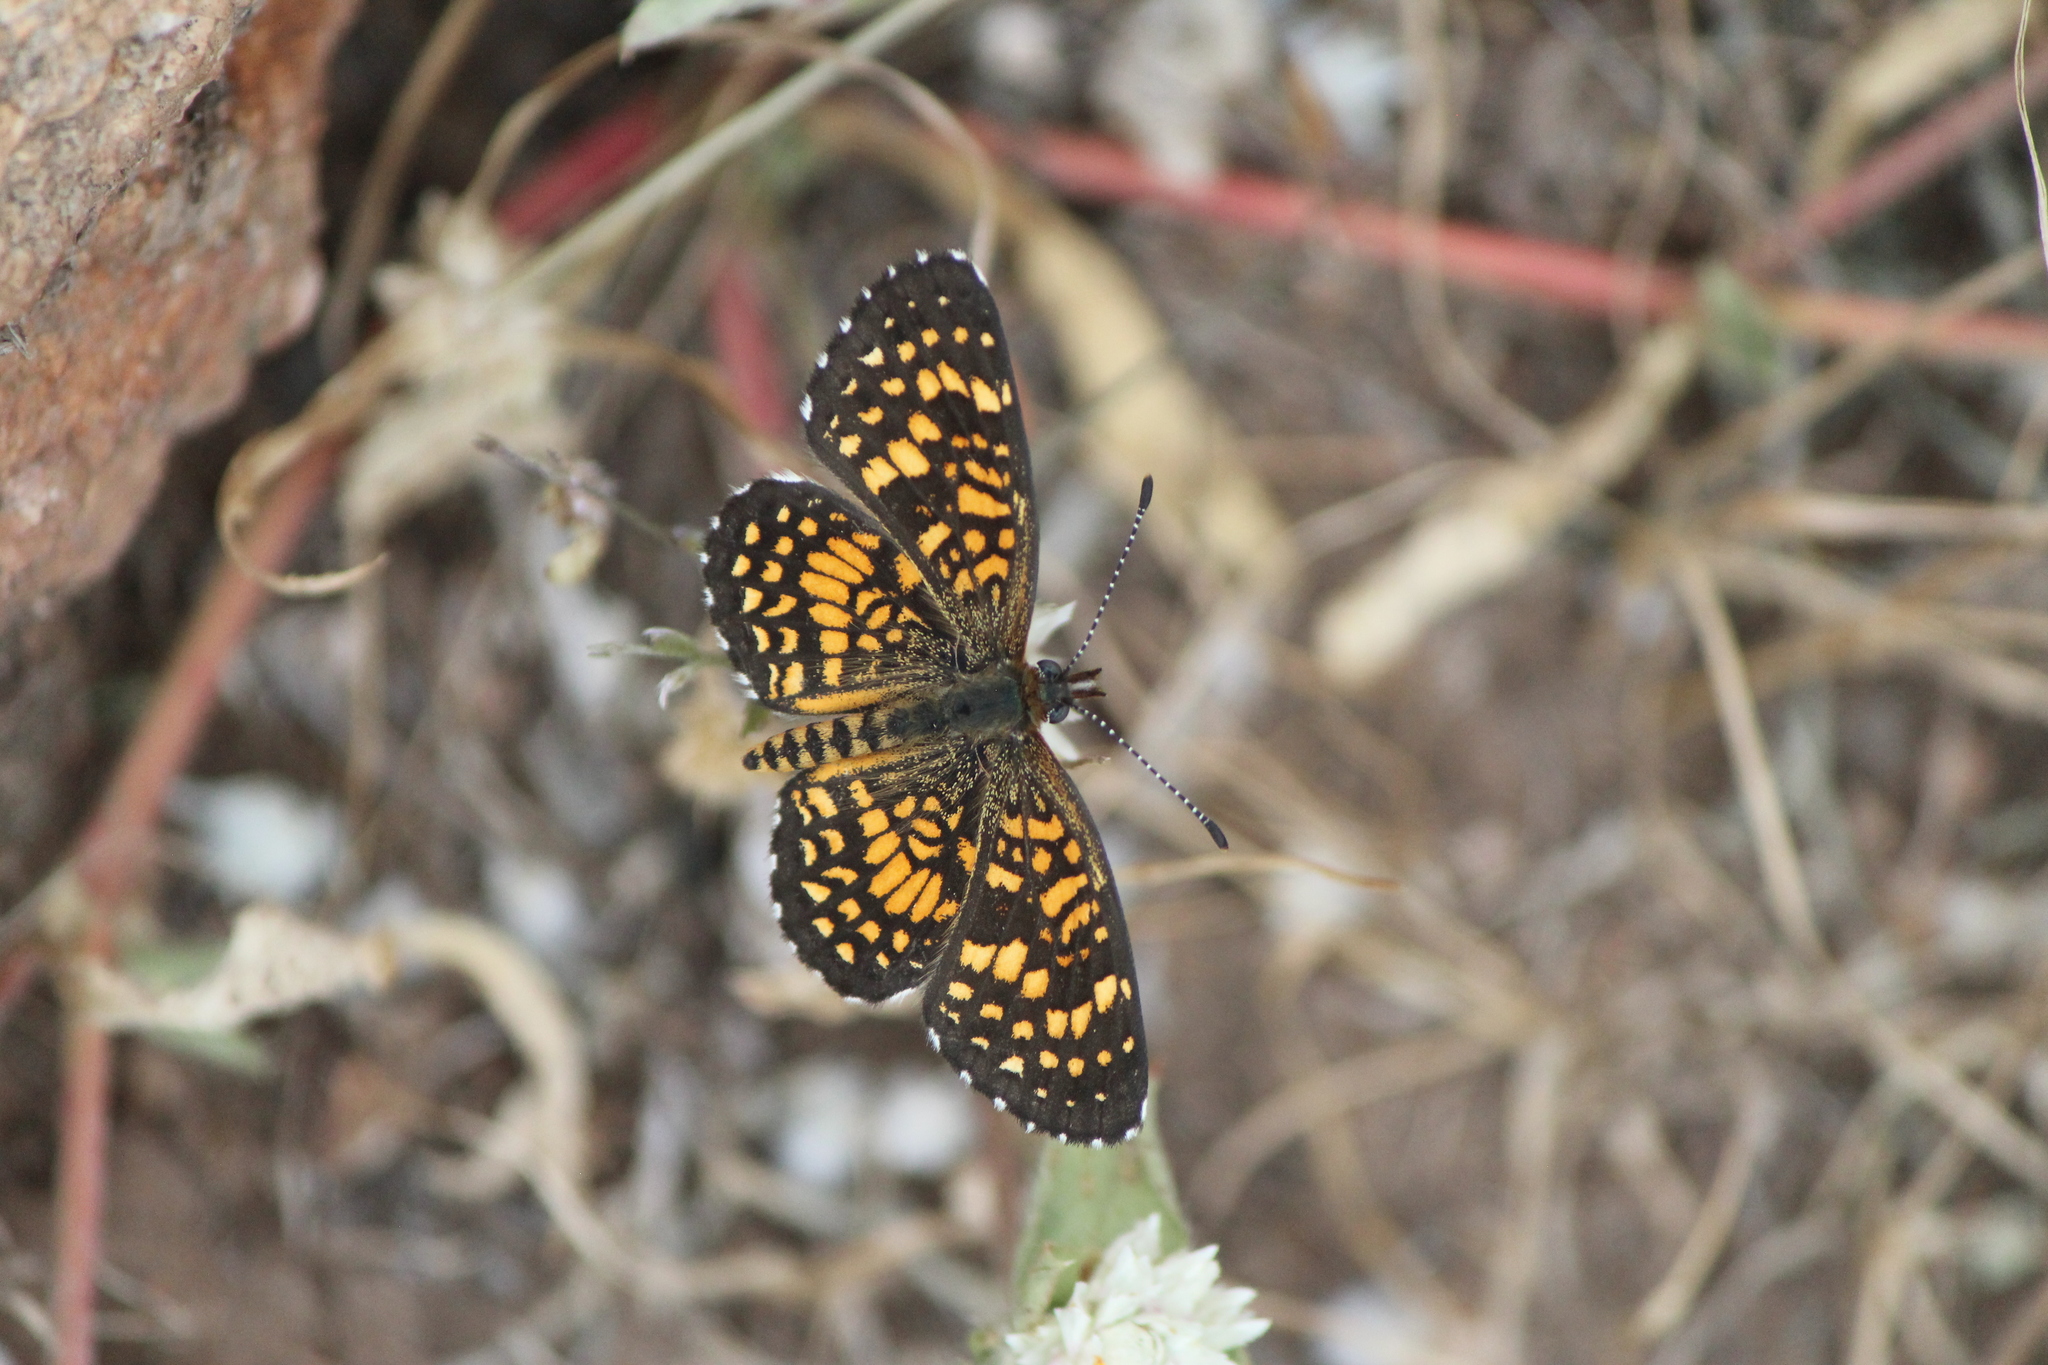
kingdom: Animalia
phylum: Arthropoda
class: Insecta
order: Lepidoptera
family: Nymphalidae
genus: Texola
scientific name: Texola elada
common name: Elada checkerspot
